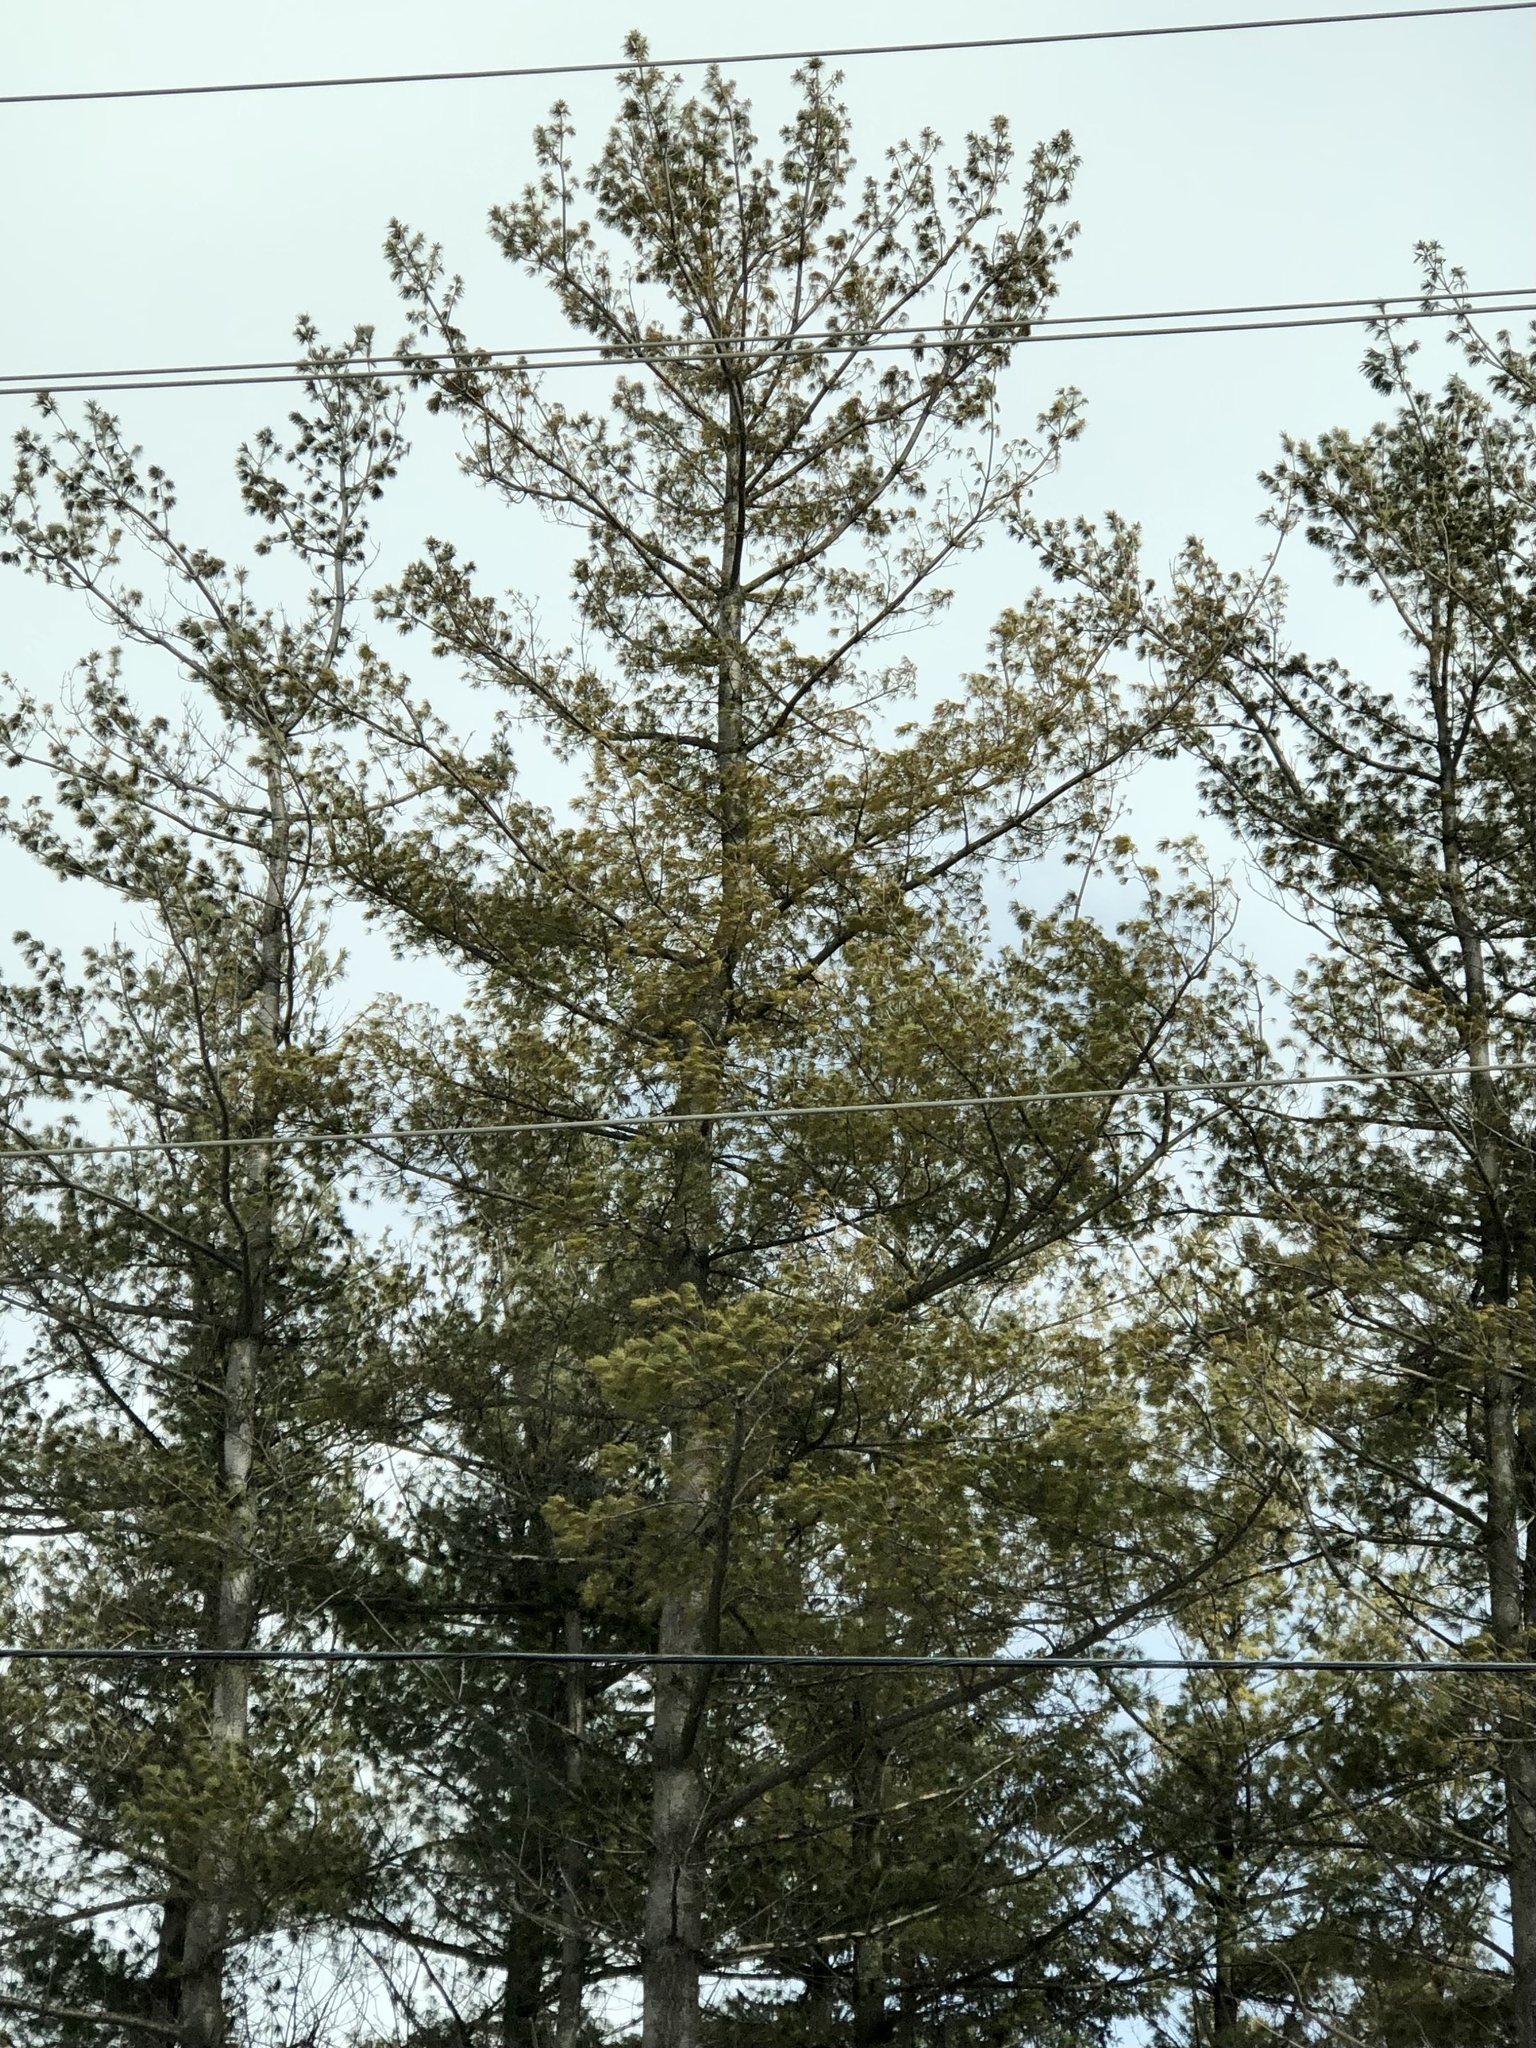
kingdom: Plantae
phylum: Tracheophyta
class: Pinopsida
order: Pinales
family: Pinaceae
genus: Pinus
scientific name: Pinus strobus
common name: Weymouth pine
